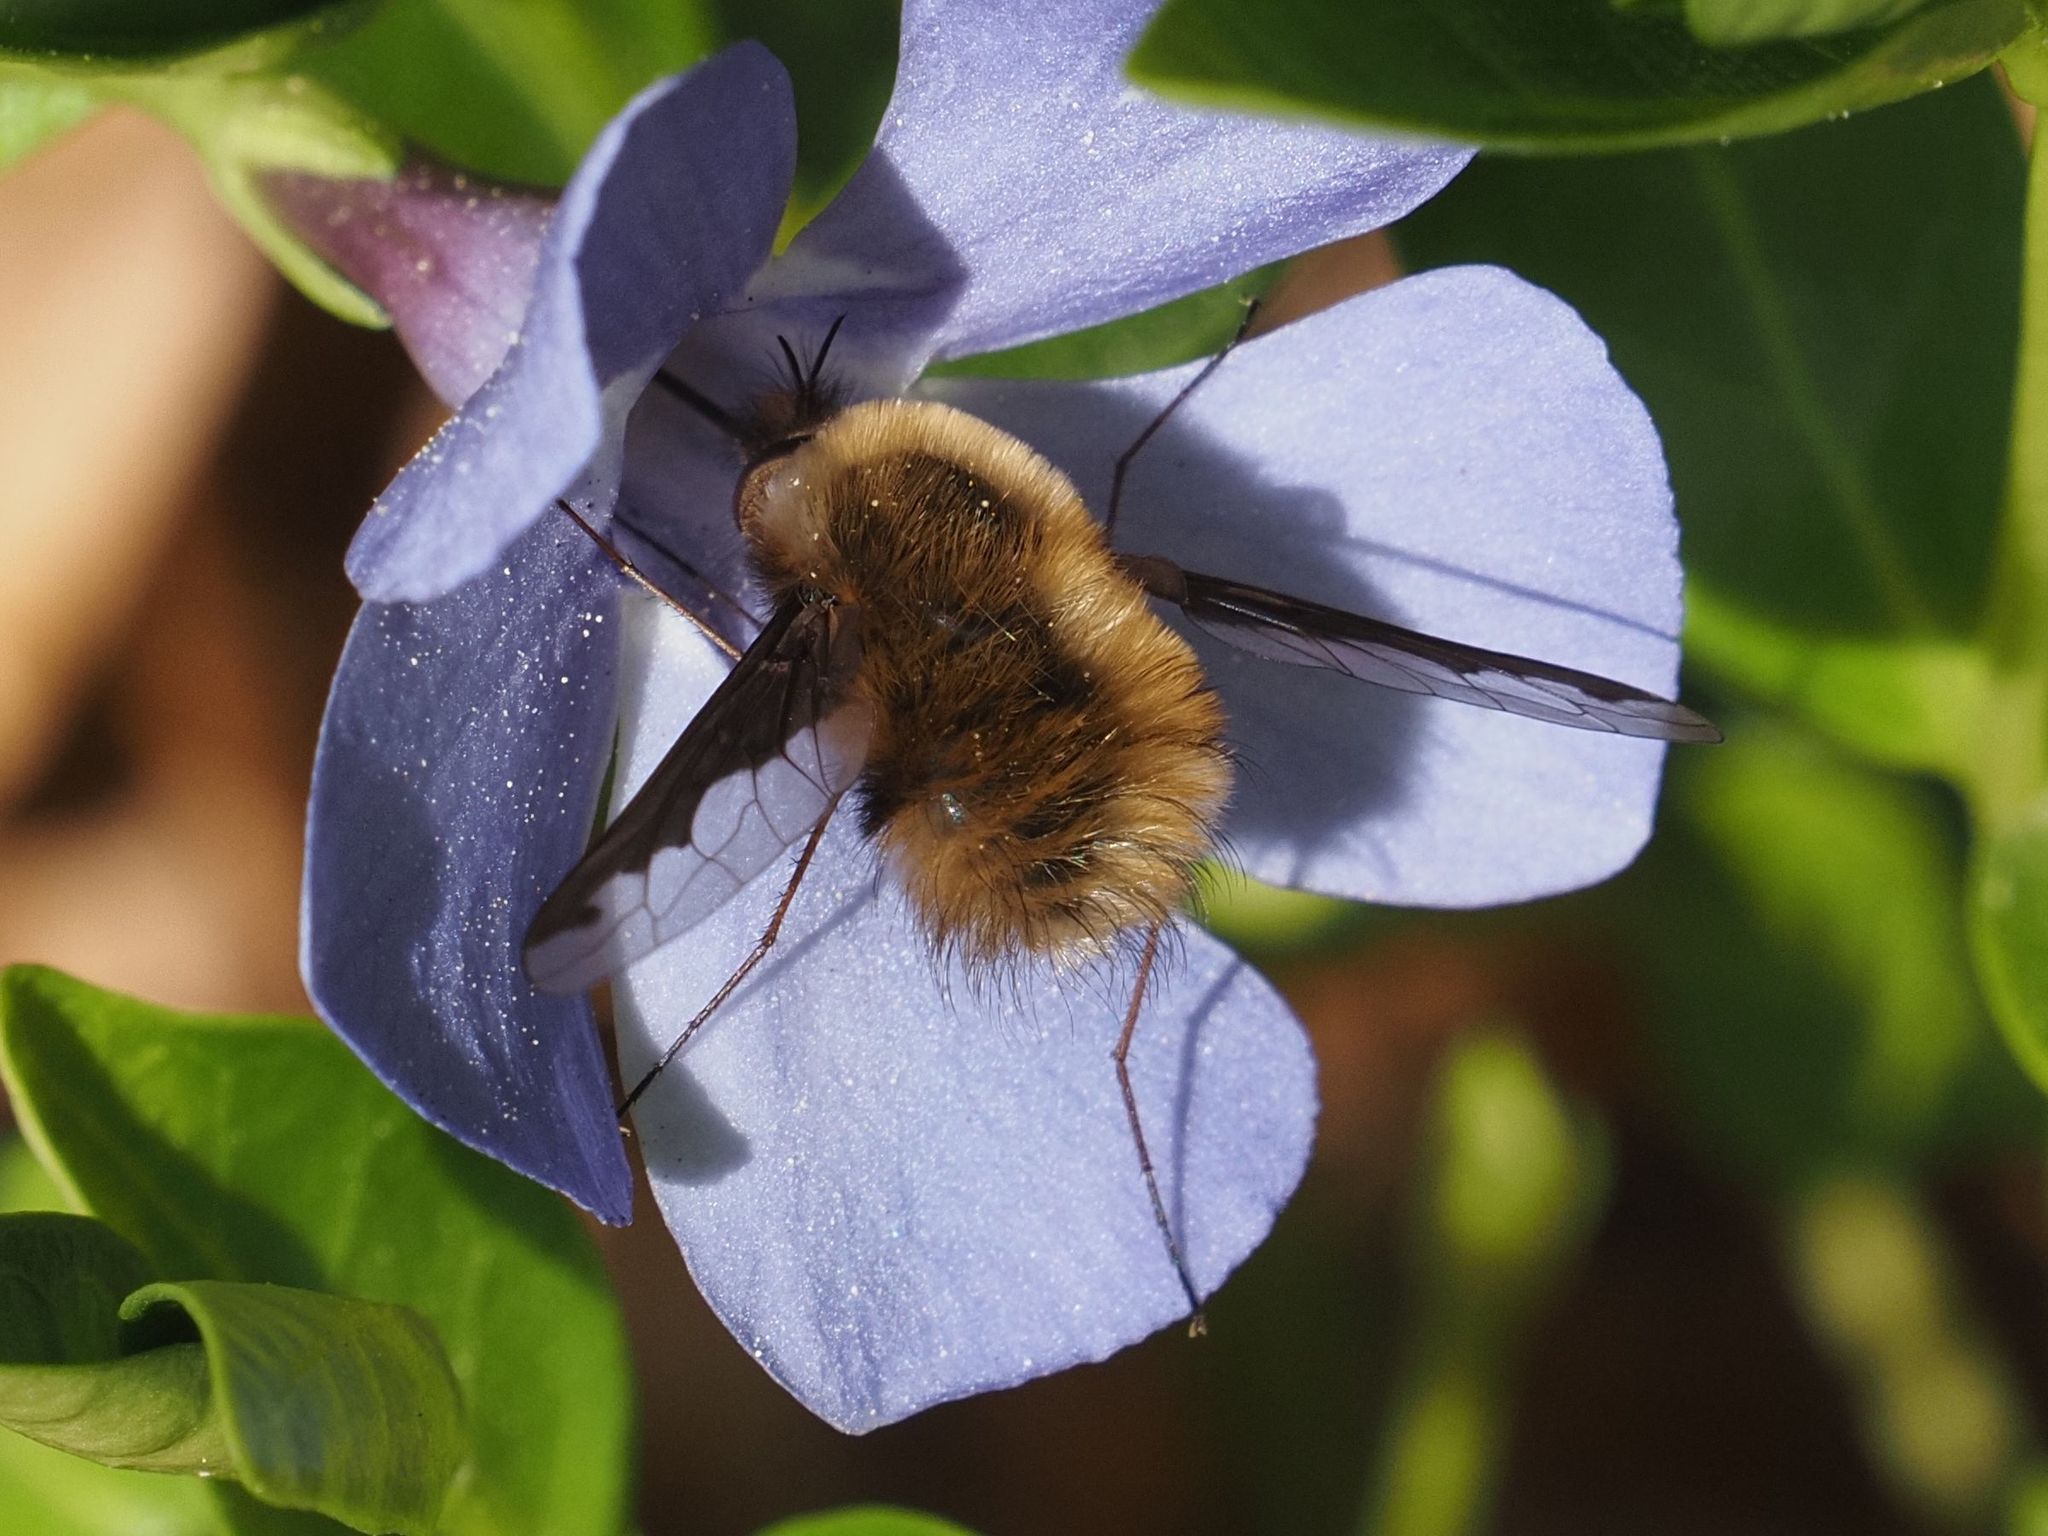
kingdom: Animalia
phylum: Arthropoda
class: Insecta
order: Diptera
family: Bombyliidae
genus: Bombylius
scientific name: Bombylius major
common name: Bee fly
